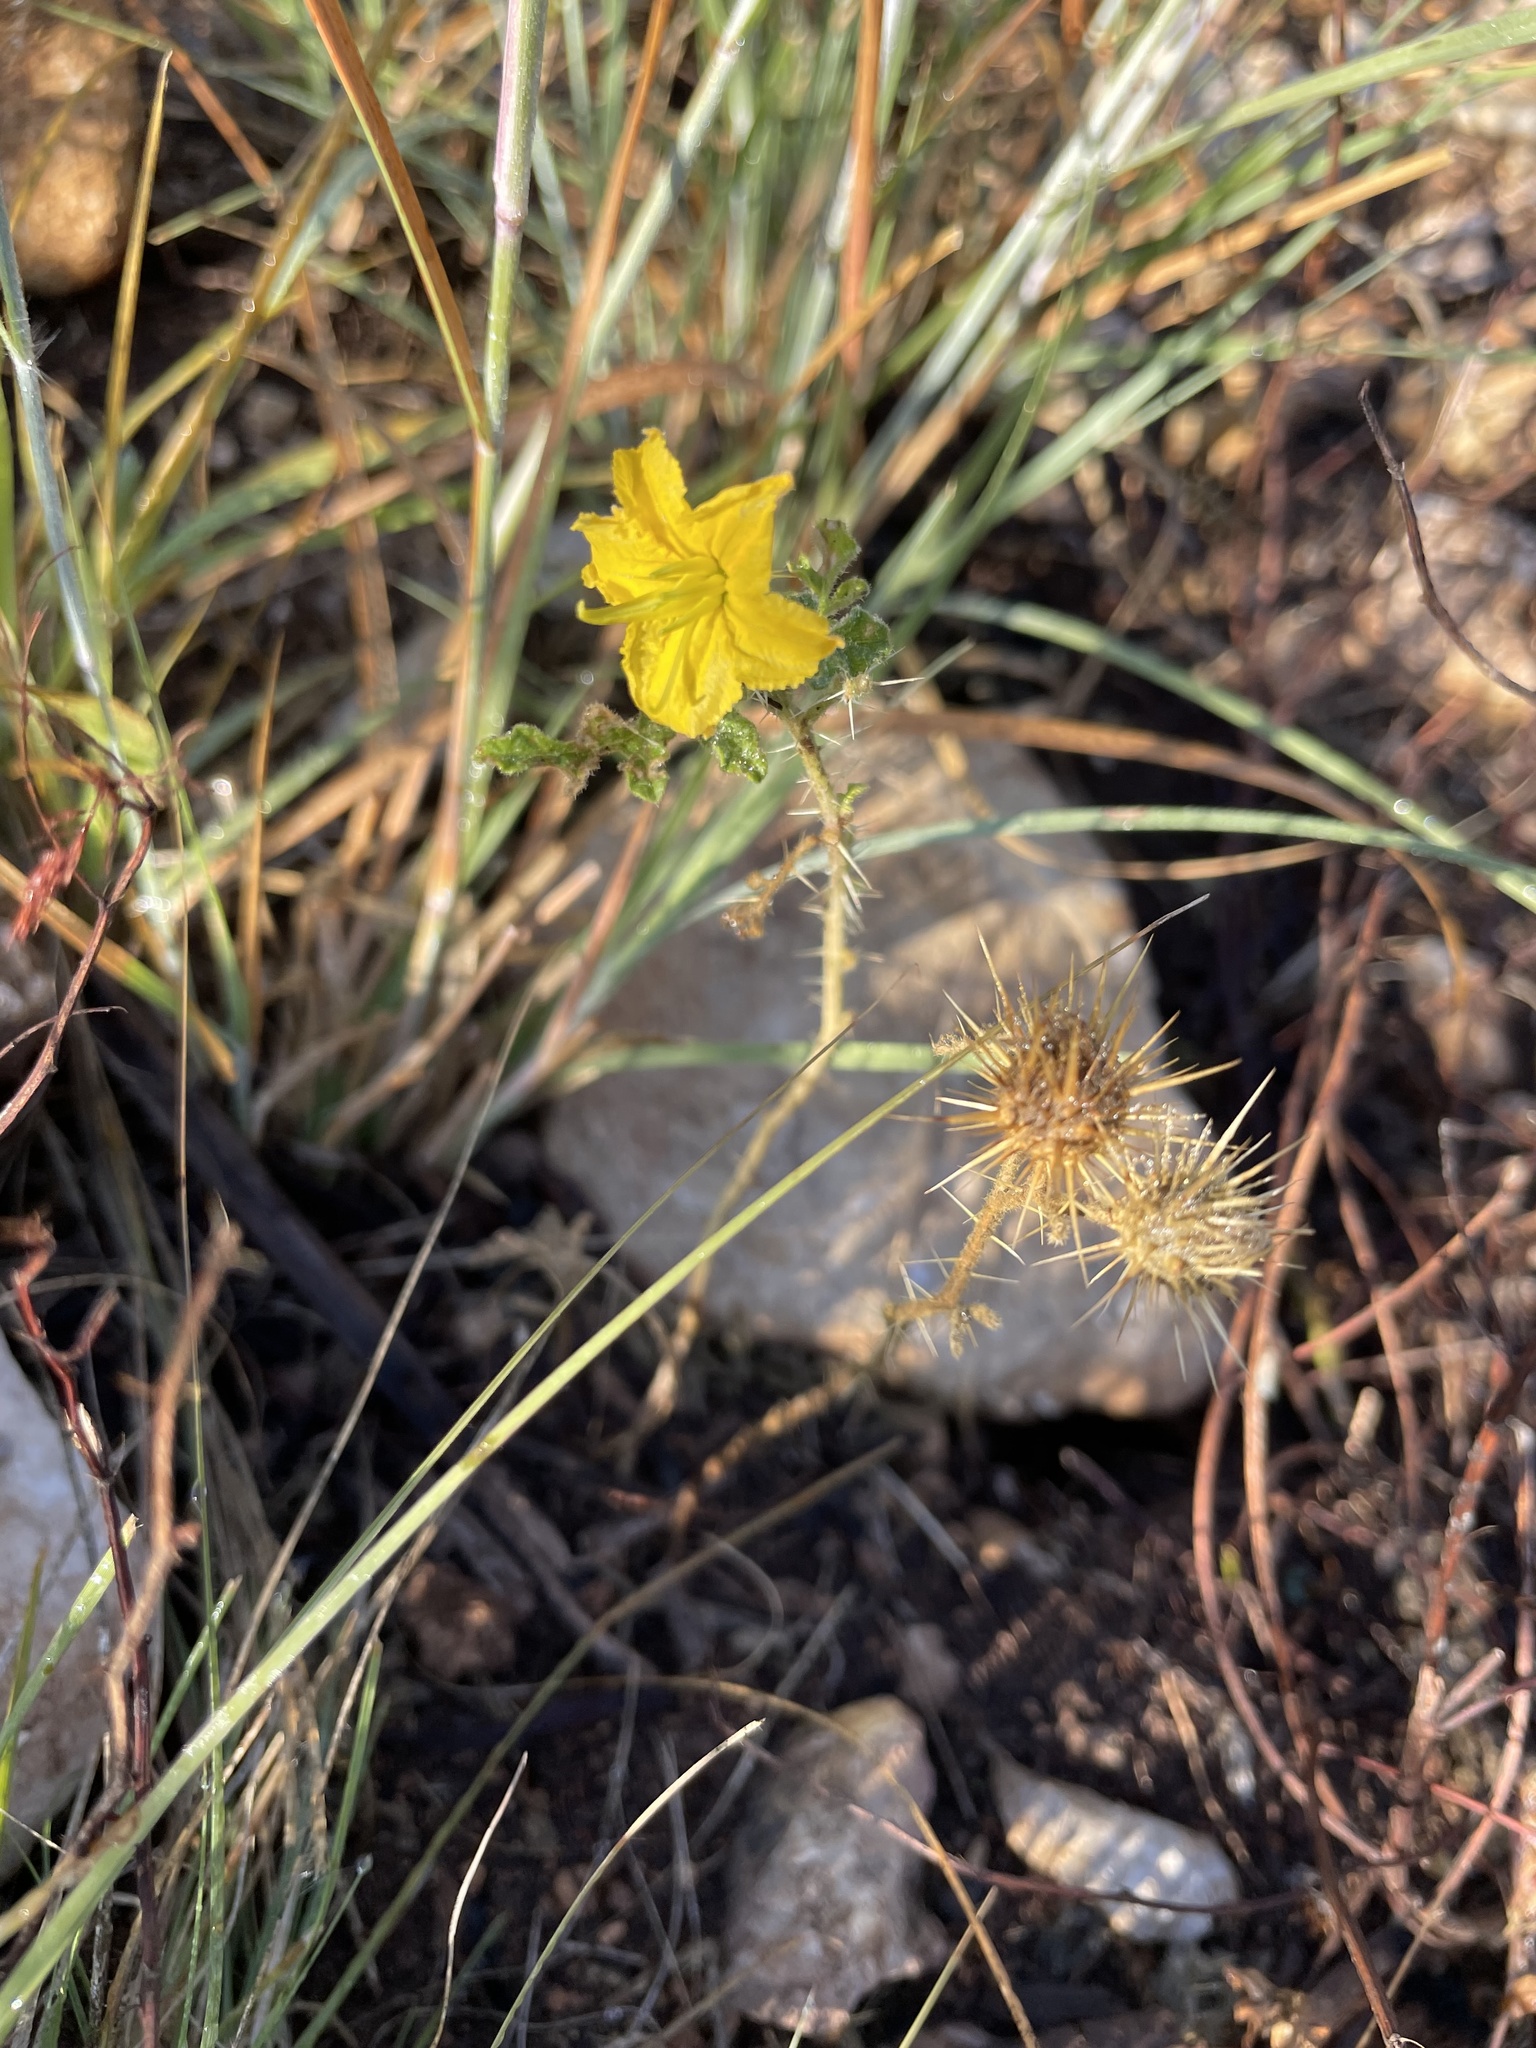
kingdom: Plantae
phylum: Tracheophyta
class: Magnoliopsida
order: Solanales
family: Solanaceae
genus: Solanum
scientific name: Solanum angustifolium
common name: Buffalobur nightshade
